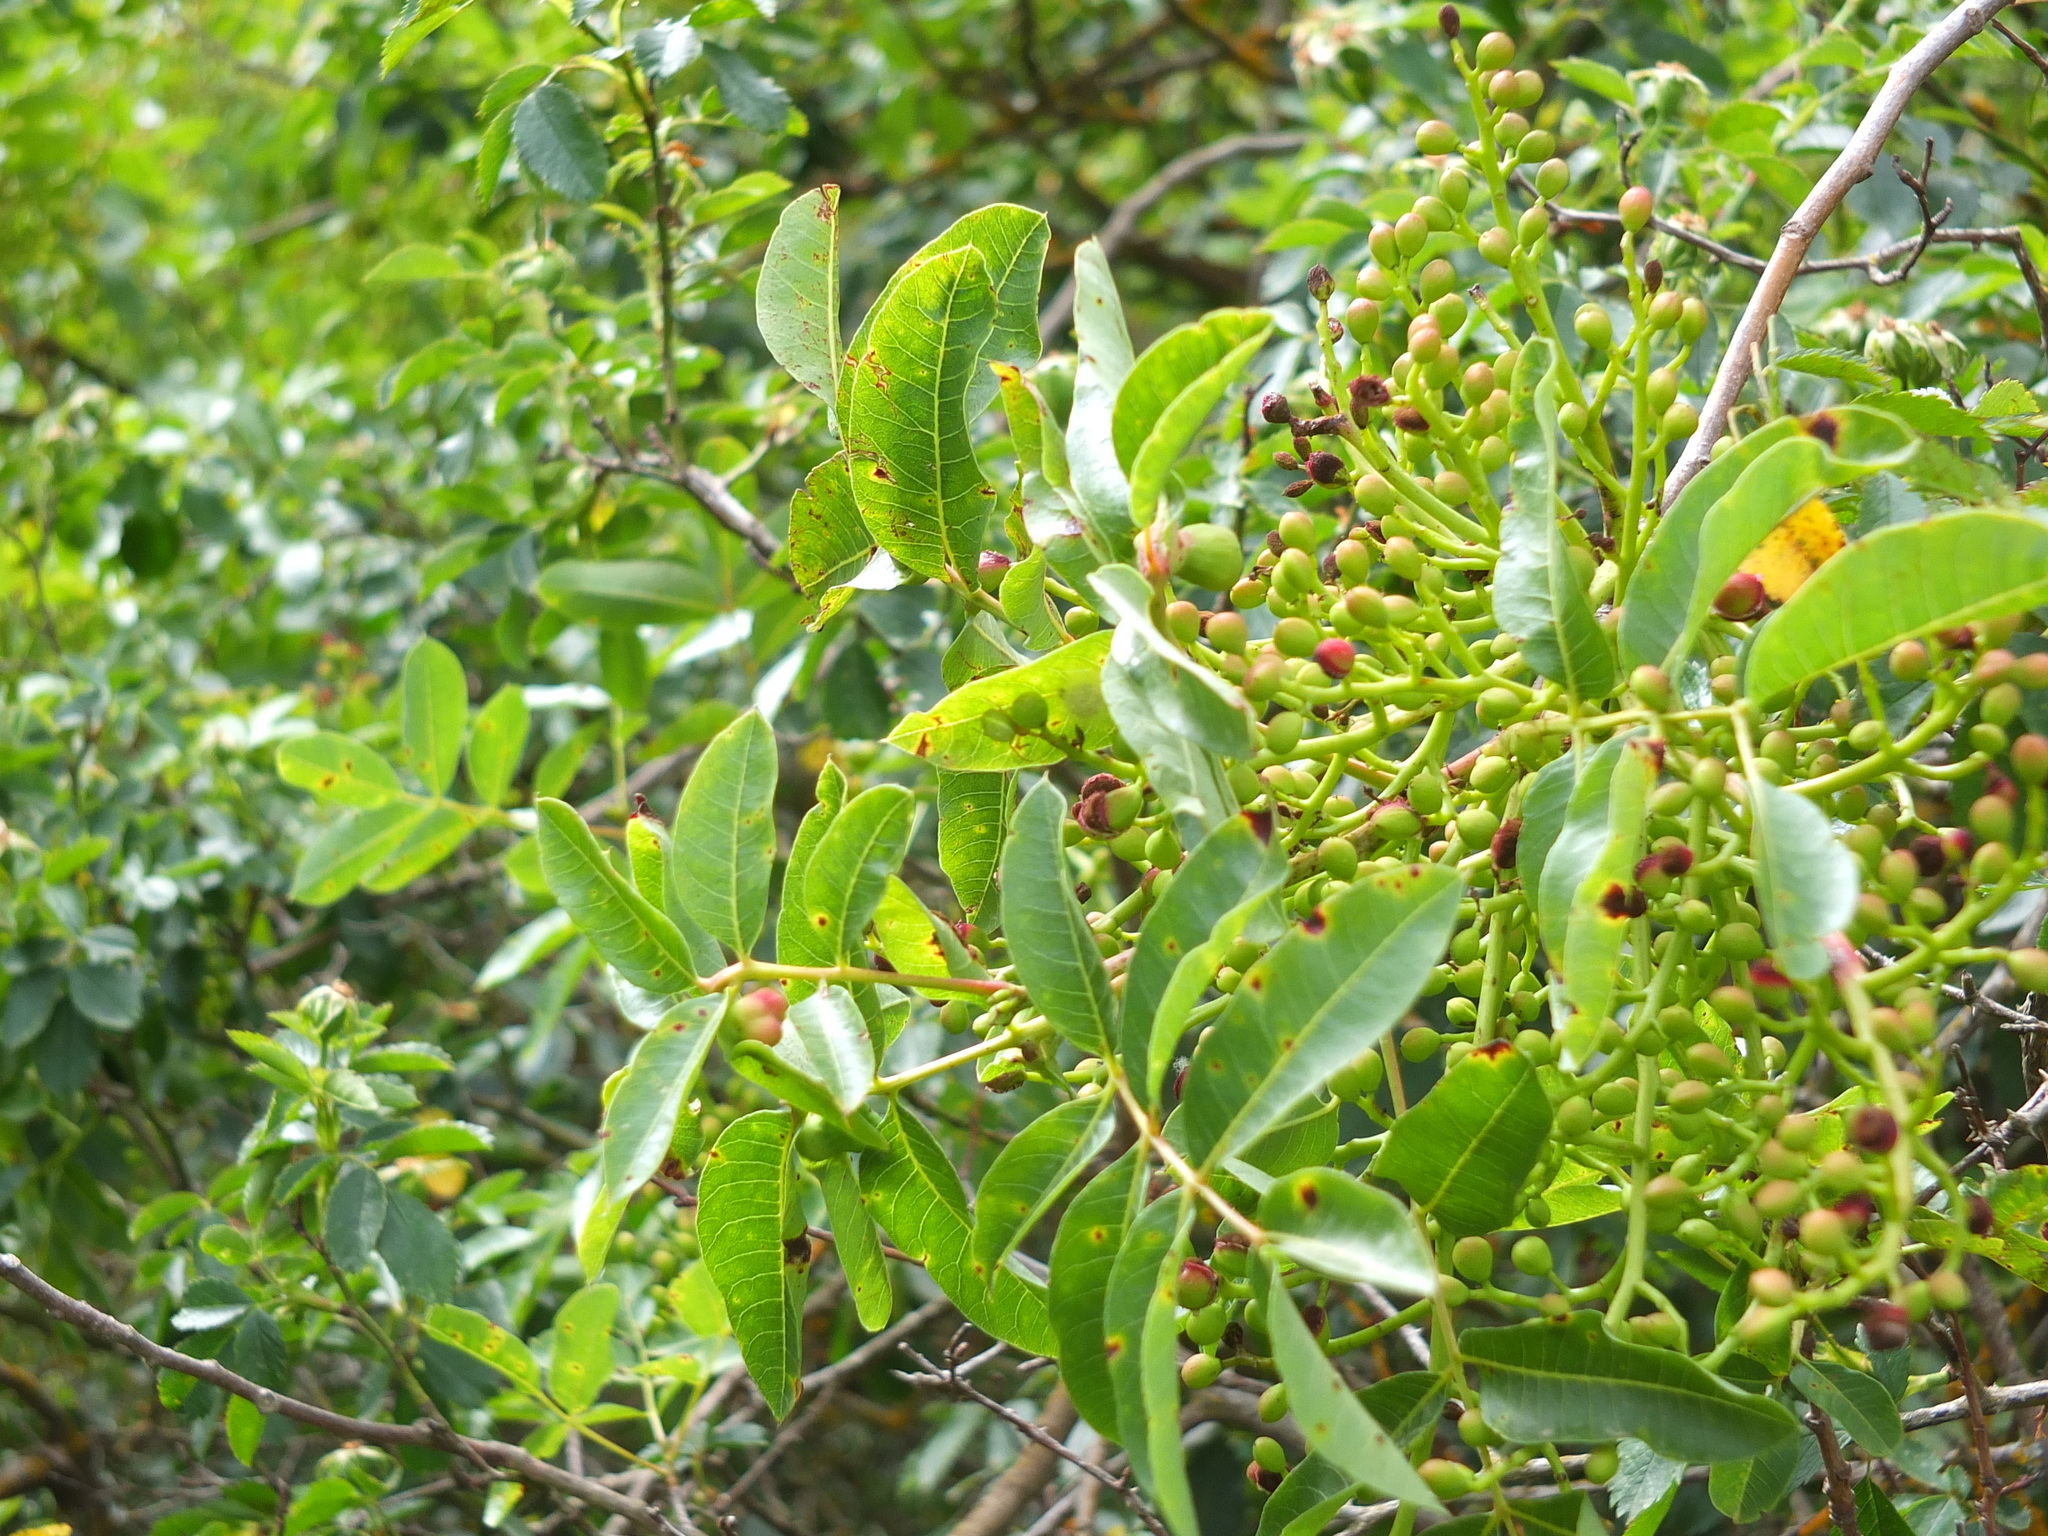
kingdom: Plantae
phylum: Tracheophyta
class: Magnoliopsida
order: Sapindales
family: Anacardiaceae
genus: Pistacia
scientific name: Pistacia terebinthus
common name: Terebinth
